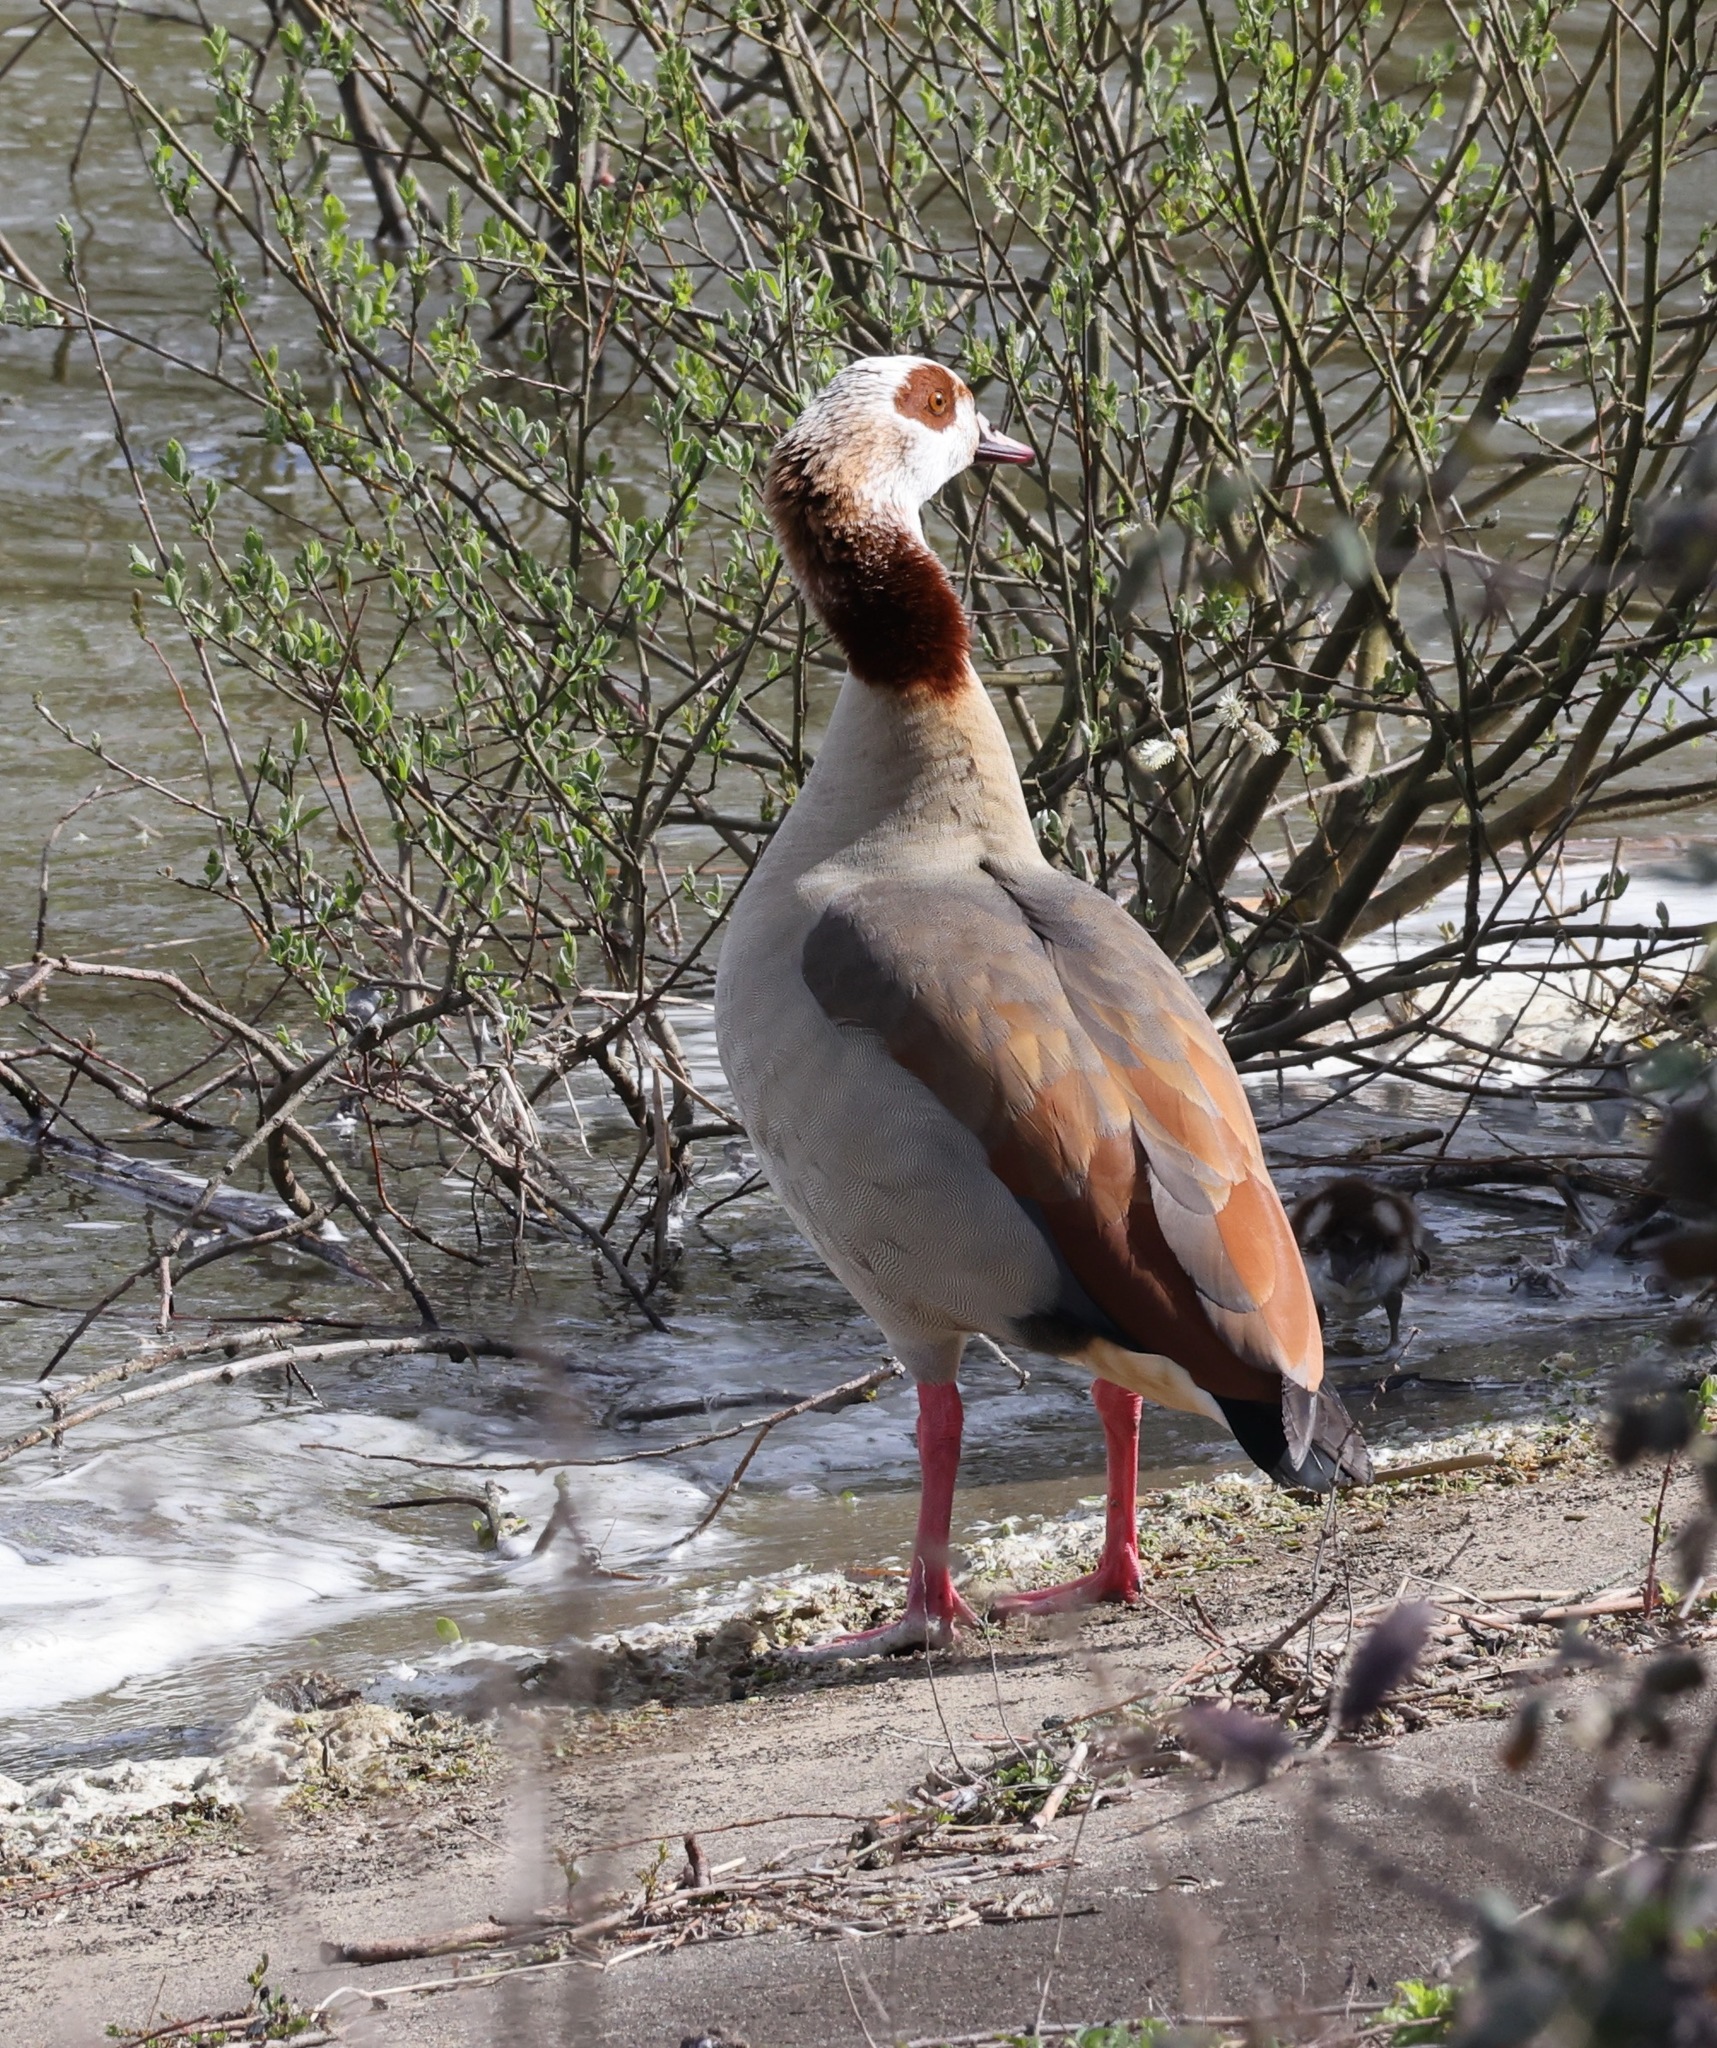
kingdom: Animalia
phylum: Chordata
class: Aves
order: Anseriformes
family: Anatidae
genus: Alopochen
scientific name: Alopochen aegyptiaca
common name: Egyptian goose
